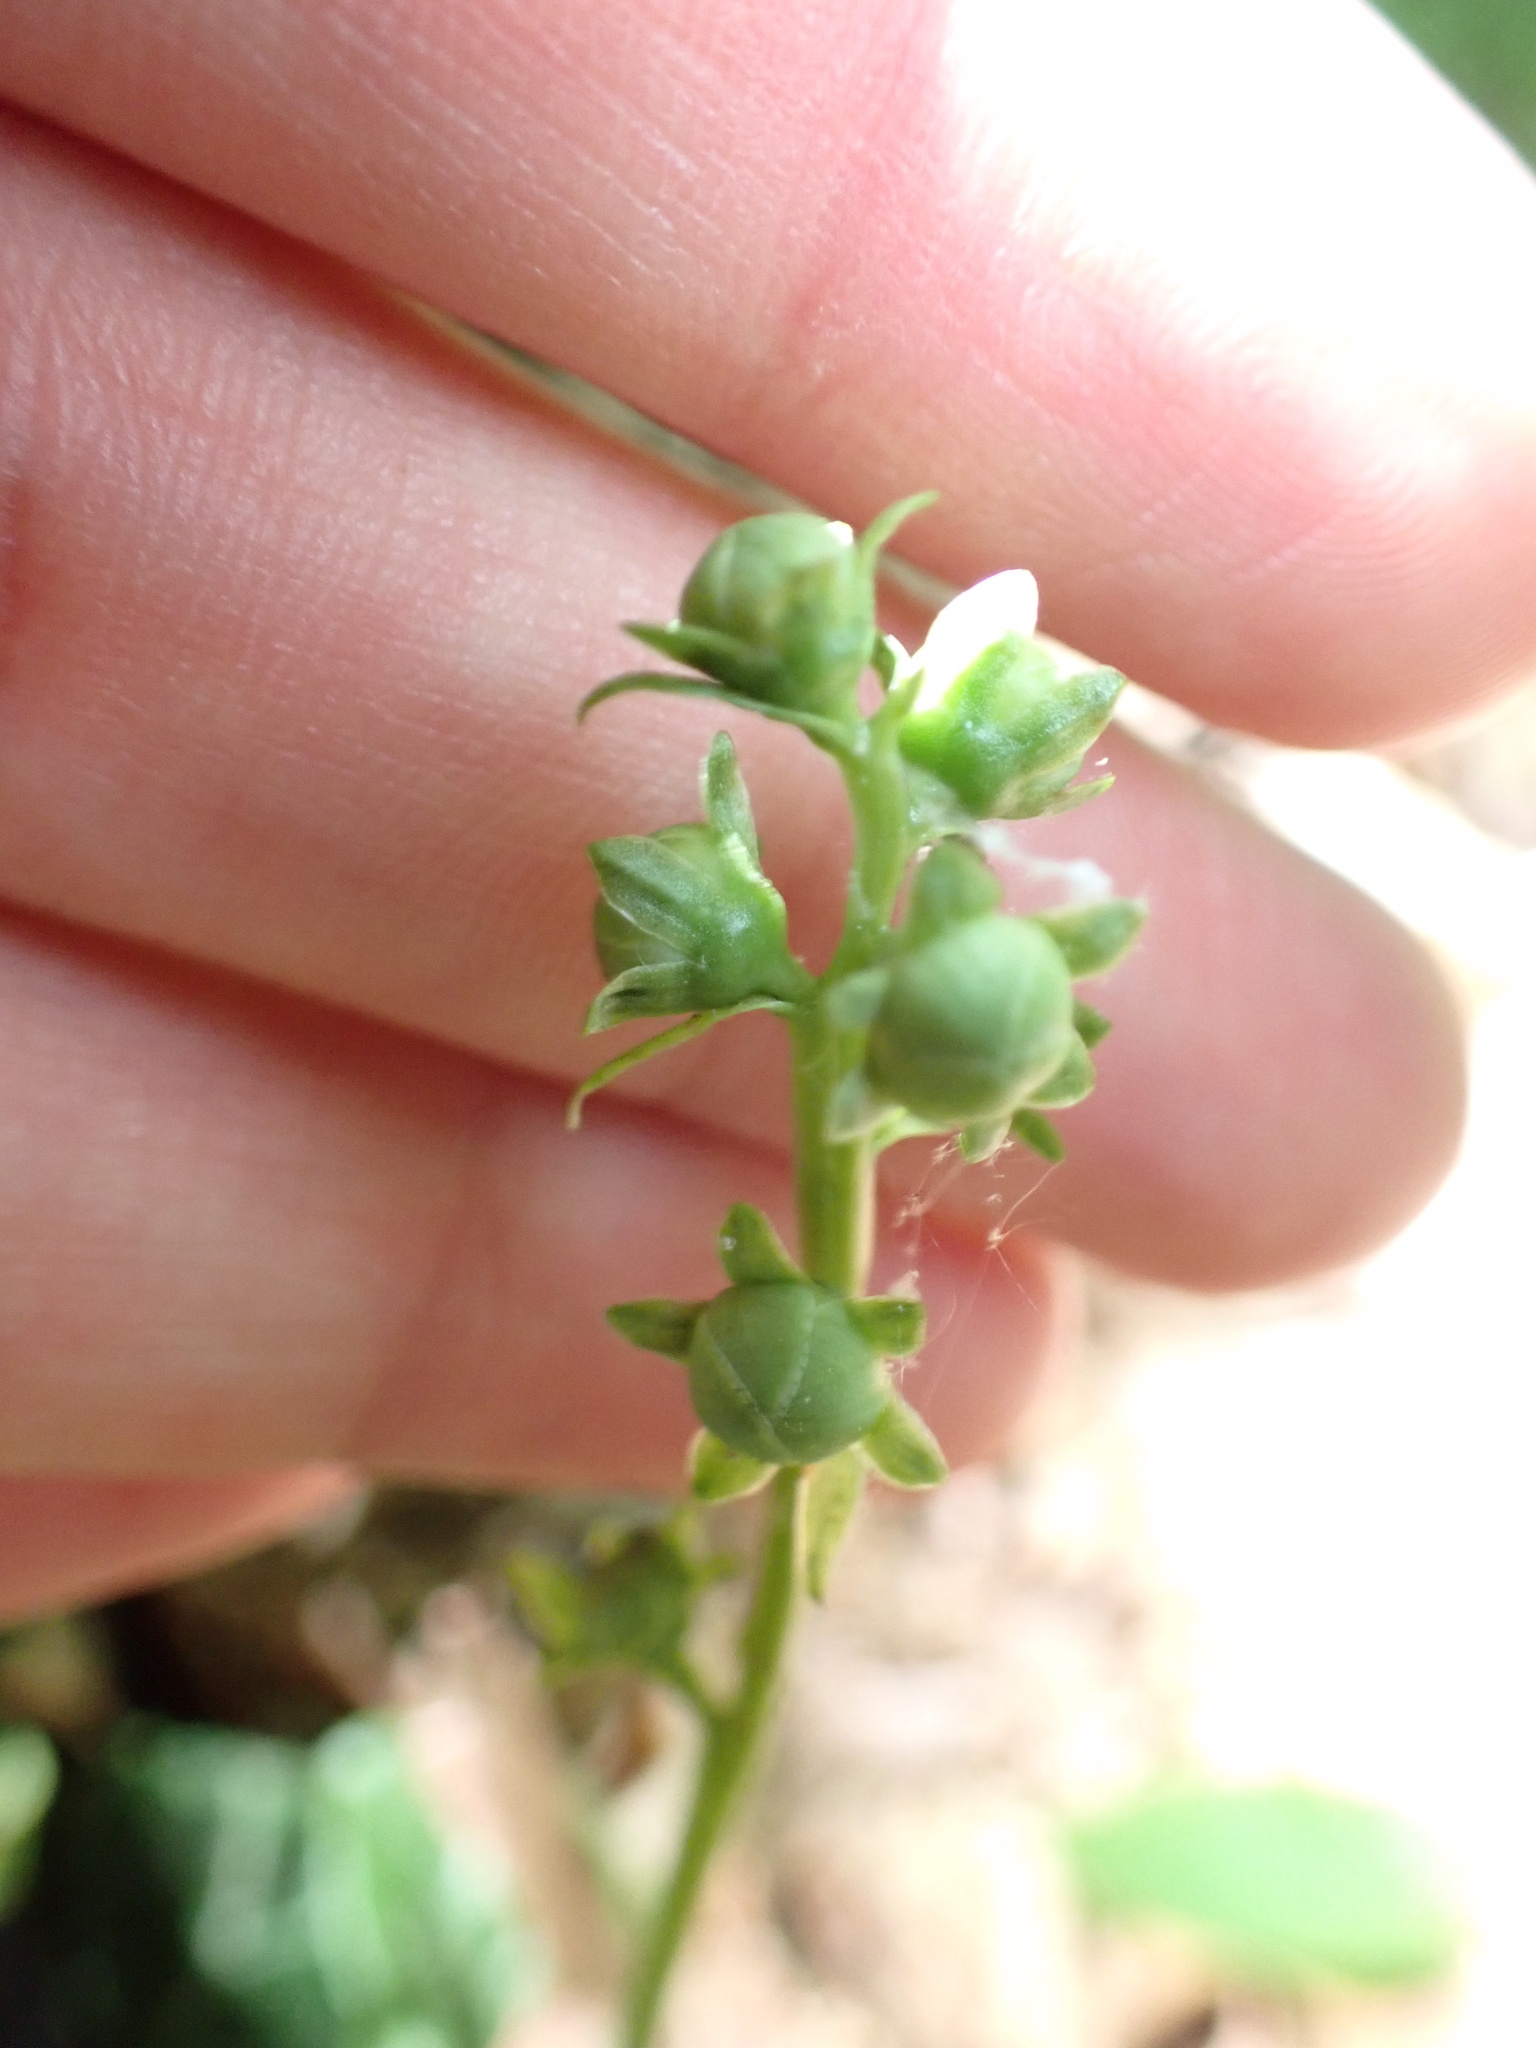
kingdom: Plantae
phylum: Tracheophyta
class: Magnoliopsida
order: Ericales
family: Ericaceae
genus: Pyrola
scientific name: Pyrola americana
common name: American wintergreen
